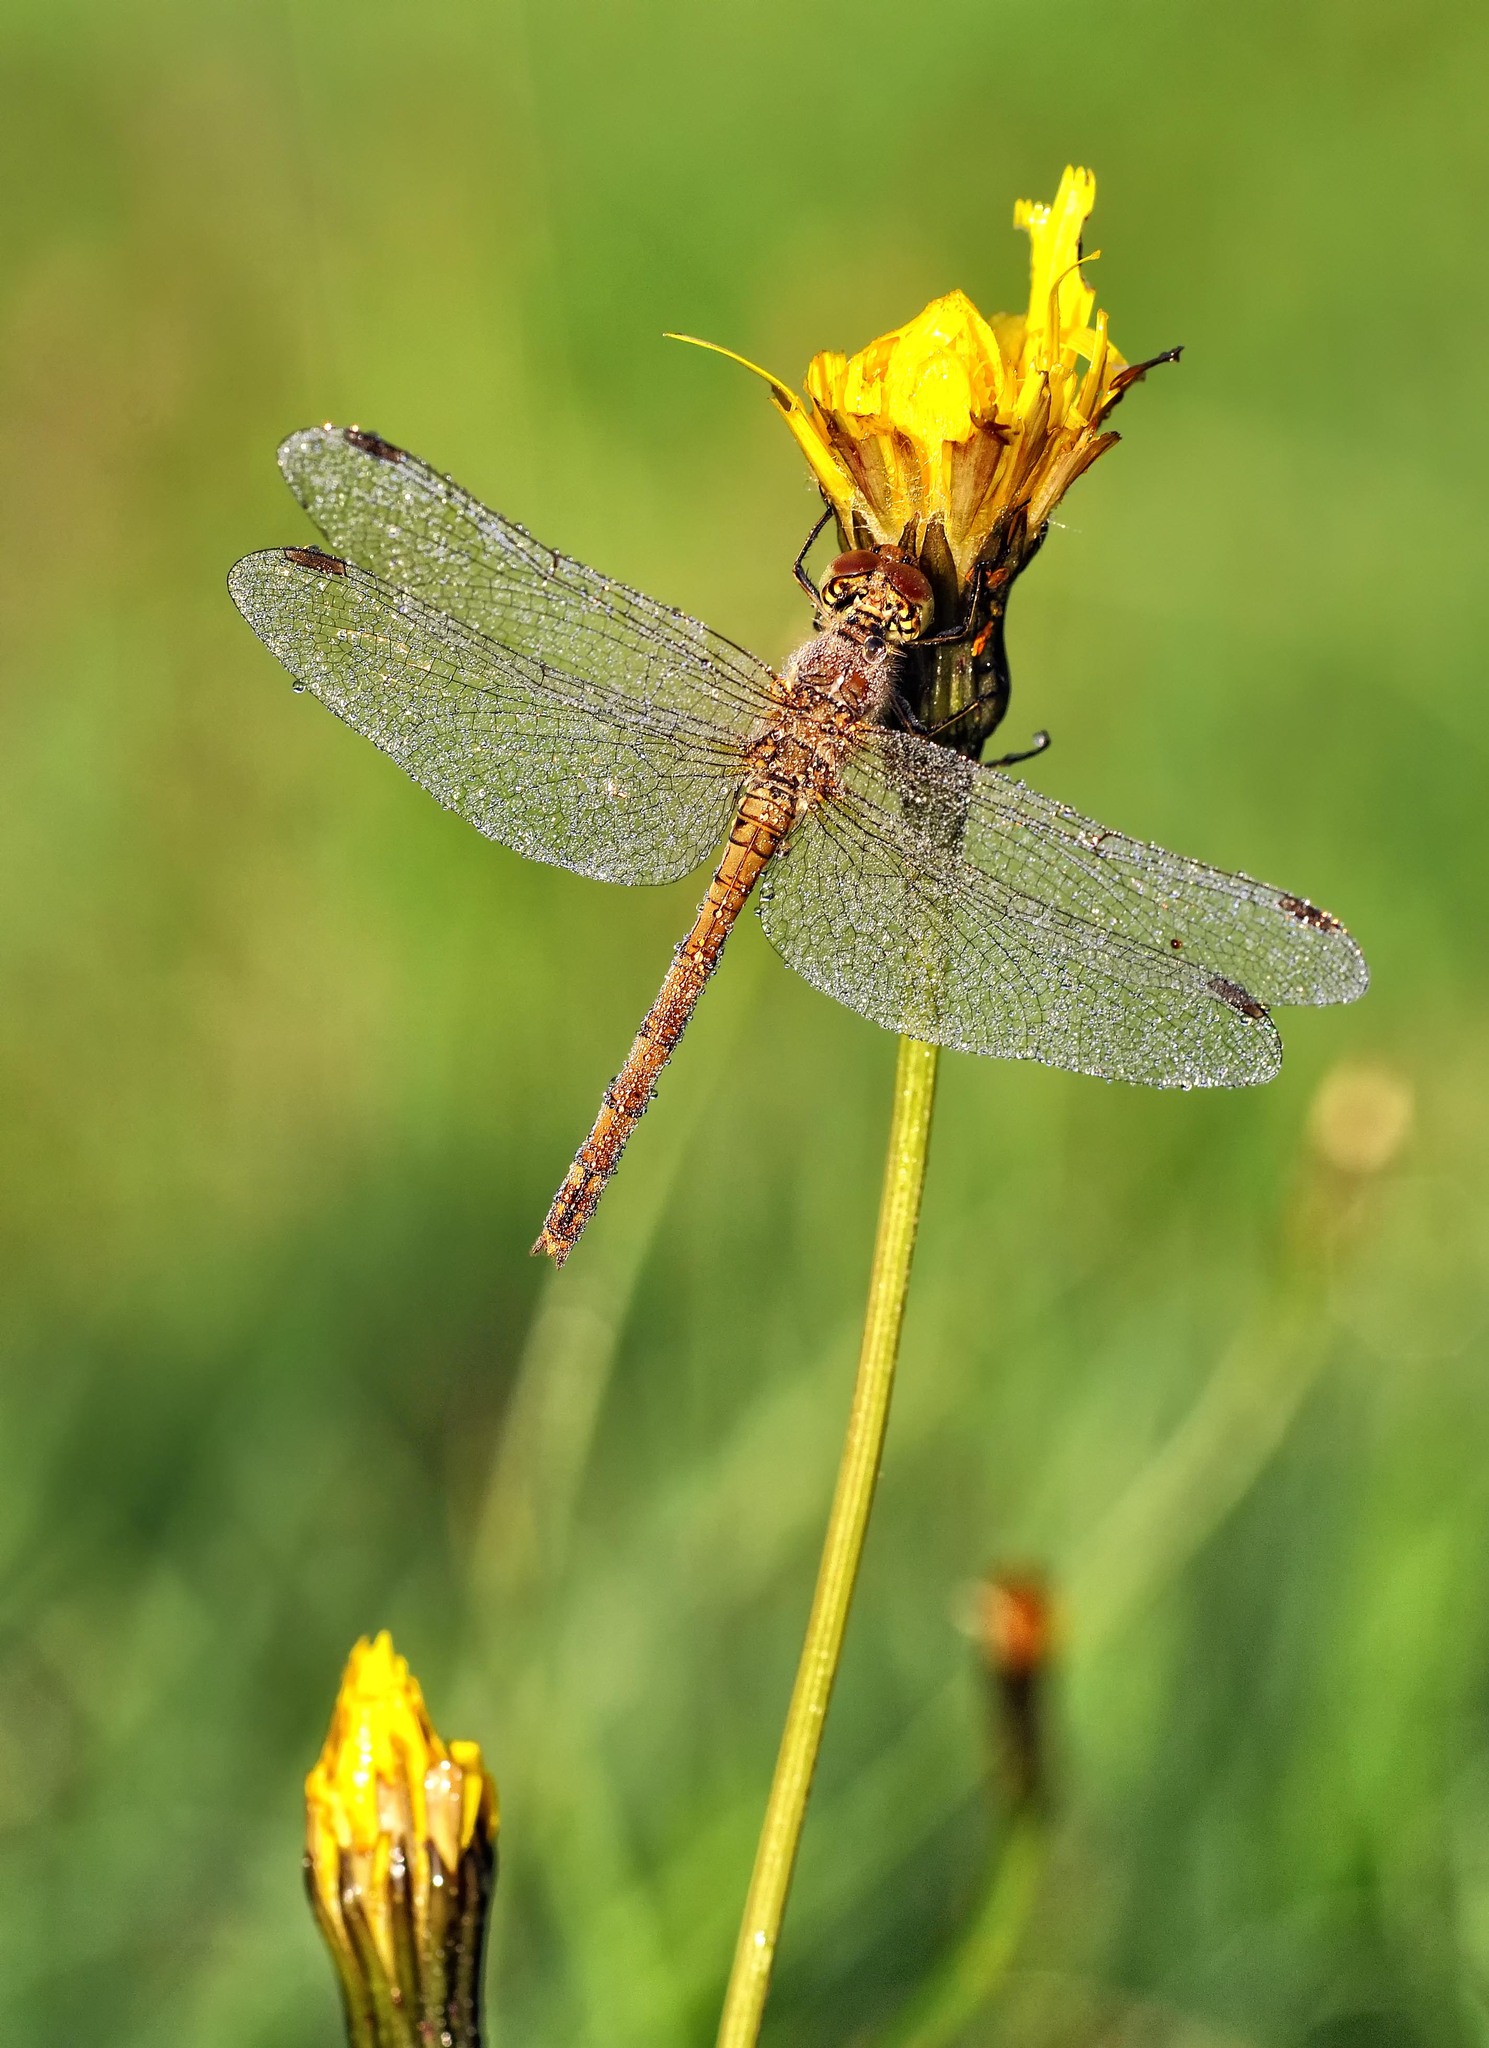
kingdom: Animalia
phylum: Arthropoda
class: Insecta
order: Odonata
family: Libellulidae
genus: Sympetrum
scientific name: Sympetrum striolatum
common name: Common darter
